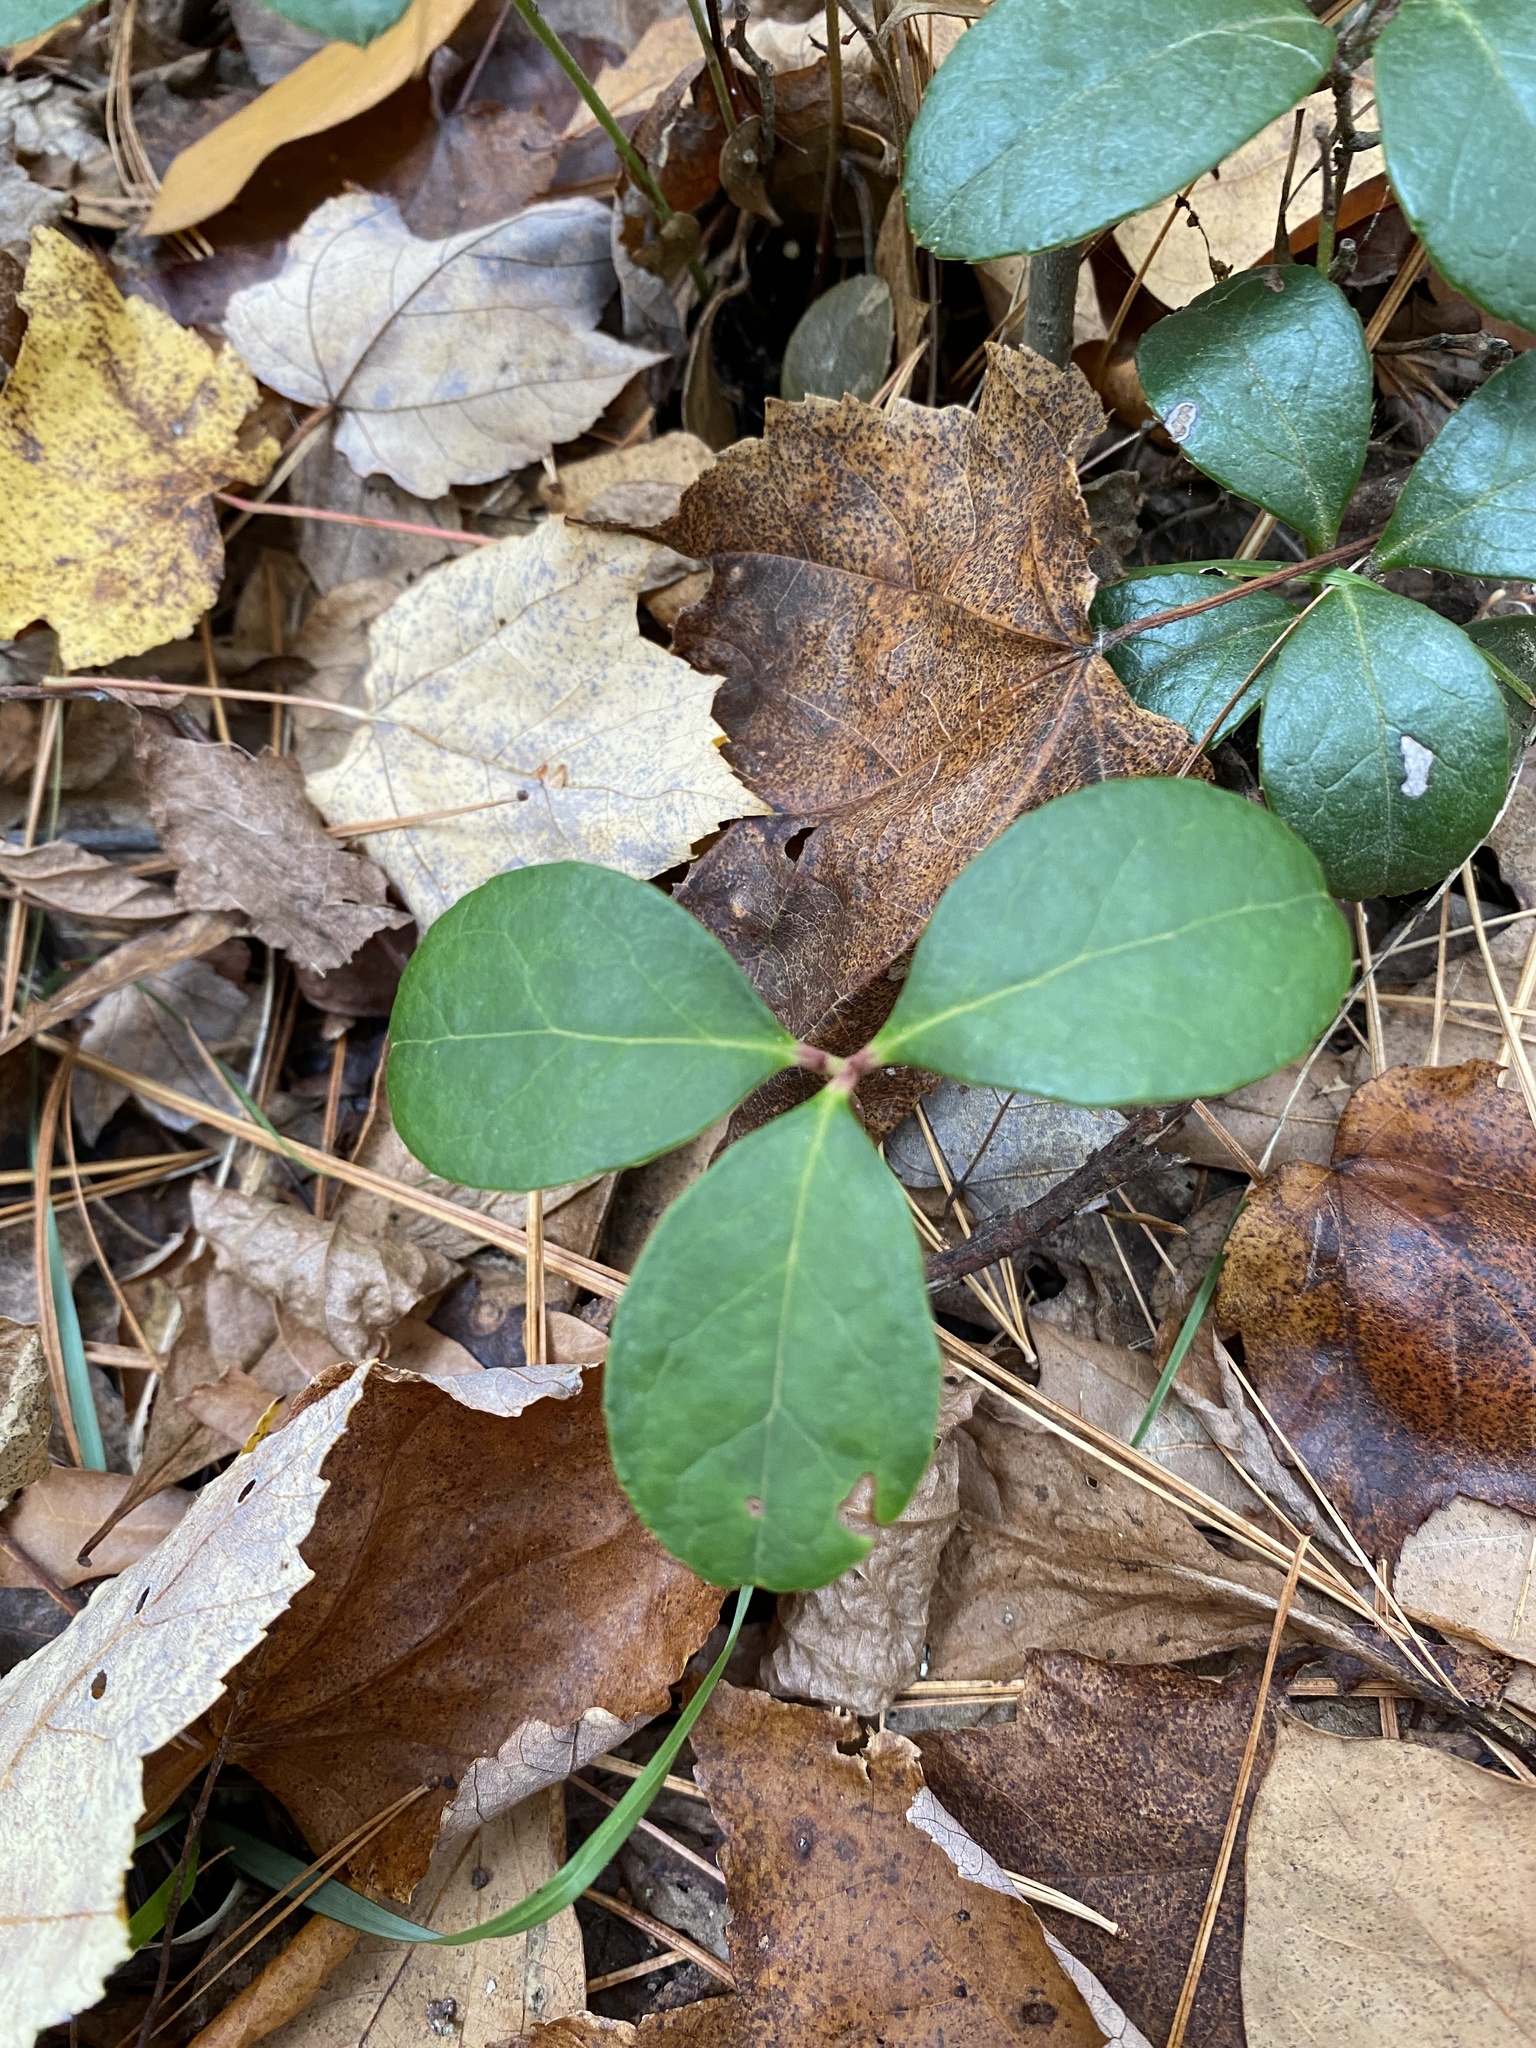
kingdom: Plantae
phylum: Tracheophyta
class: Magnoliopsida
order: Ericales
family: Ericaceae
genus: Gaultheria
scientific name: Gaultheria procumbens
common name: Checkerberry
